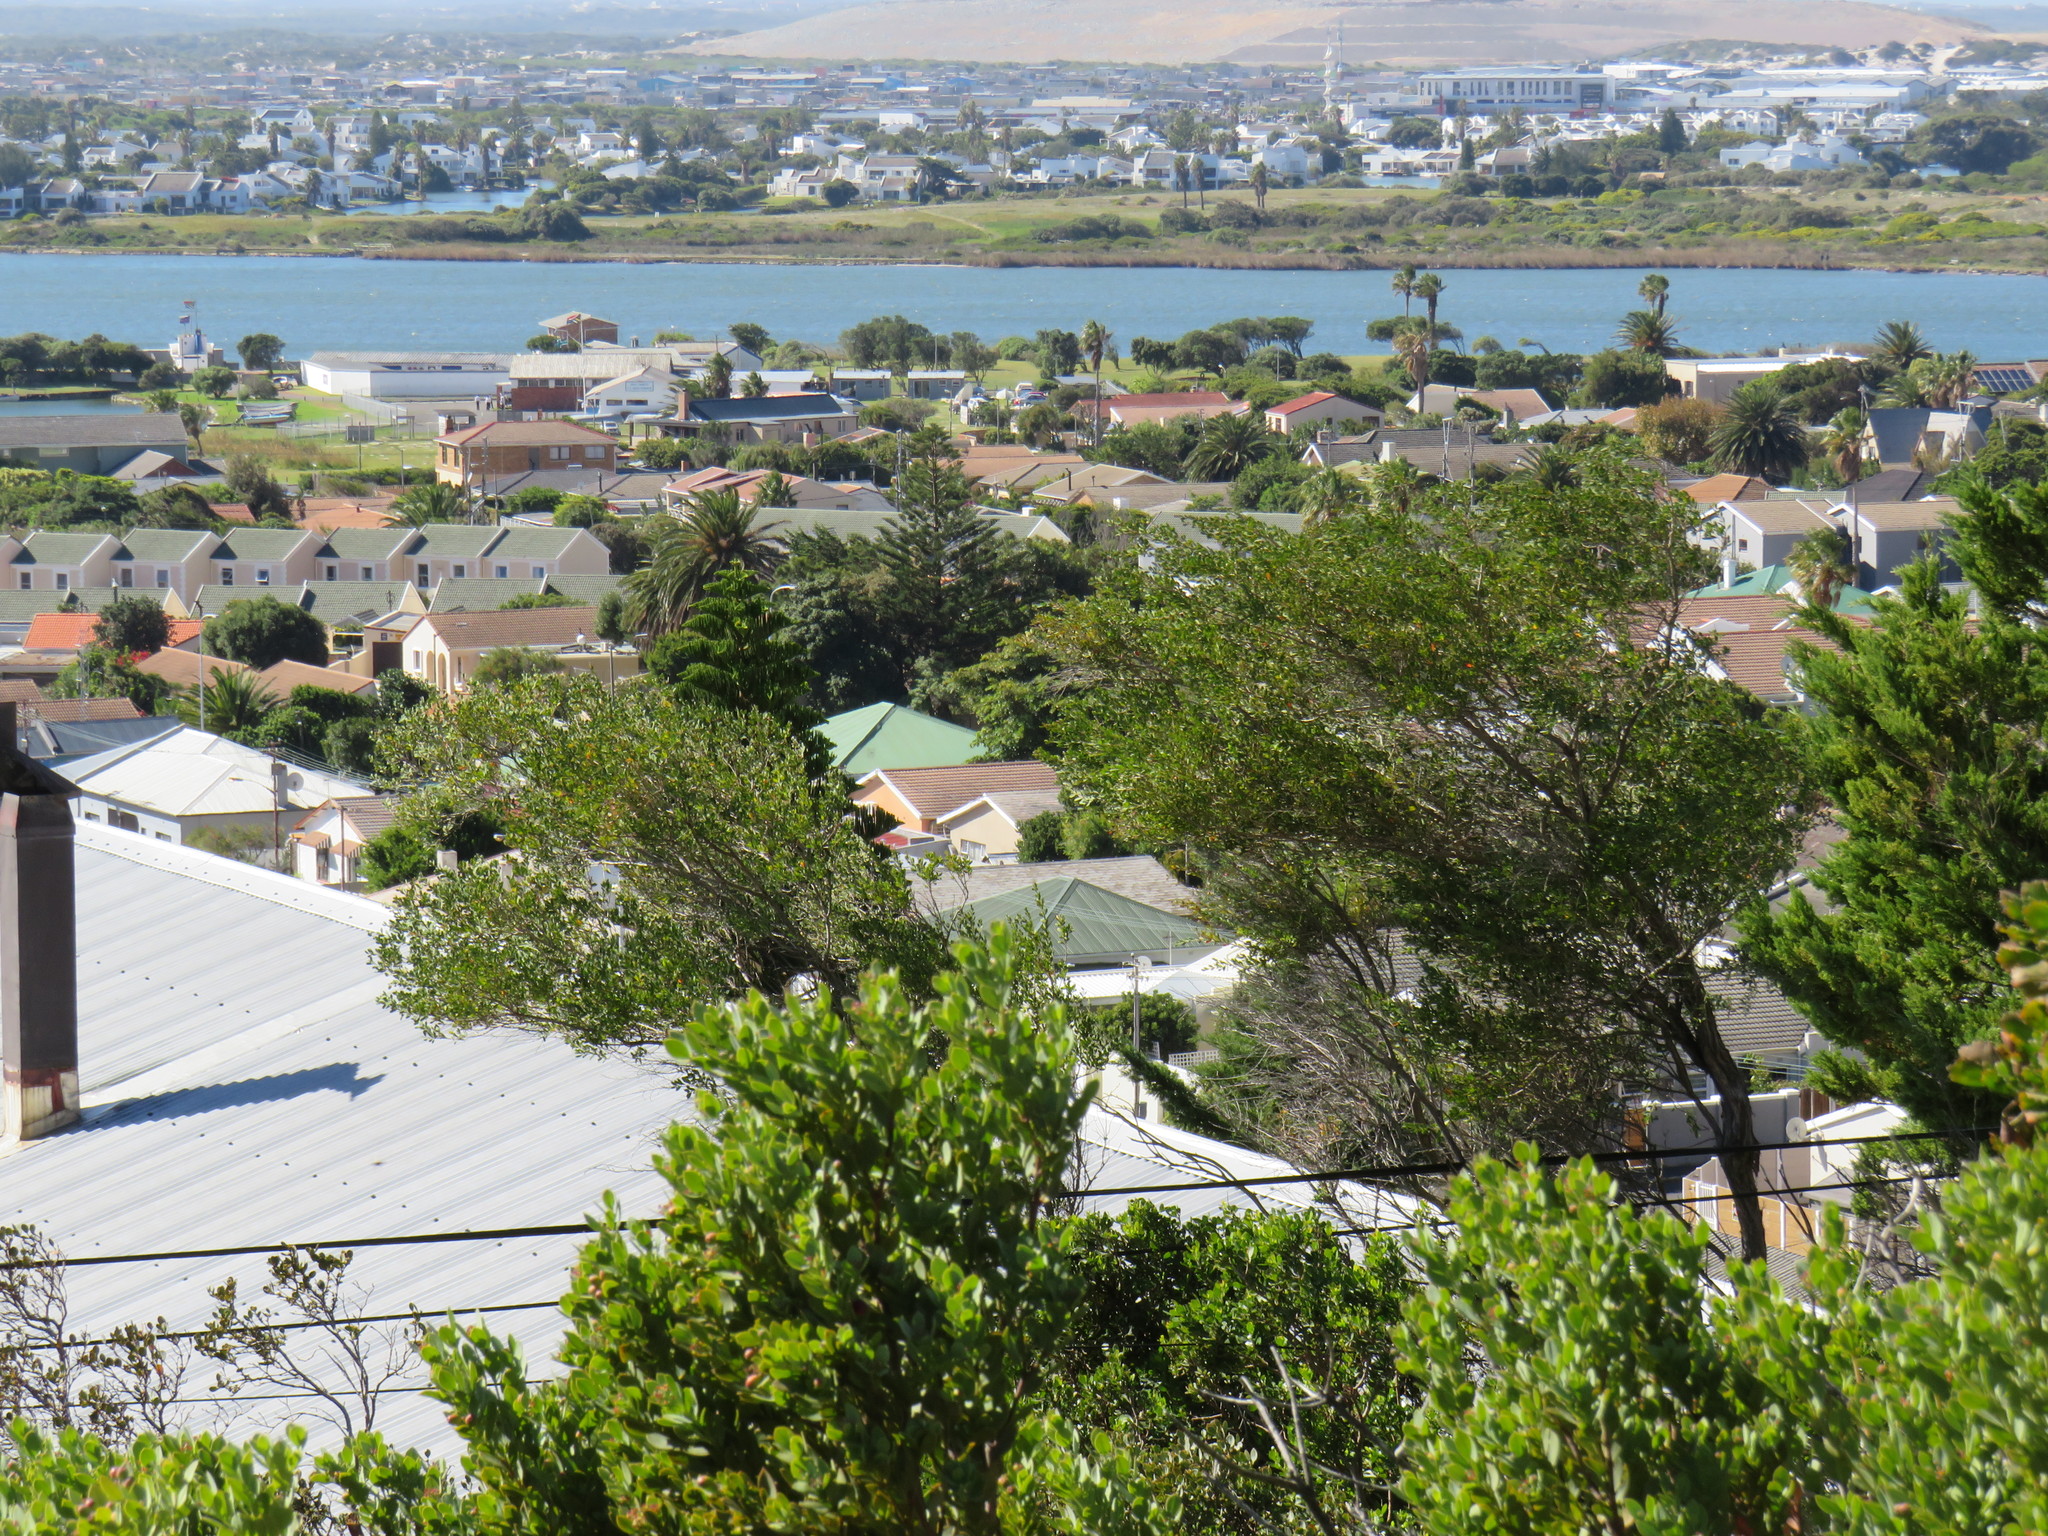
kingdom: Plantae
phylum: Tracheophyta
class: Magnoliopsida
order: Myrtales
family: Myrtaceae
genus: Leptospermum
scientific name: Leptospermum laevigatum
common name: Australian teatree
